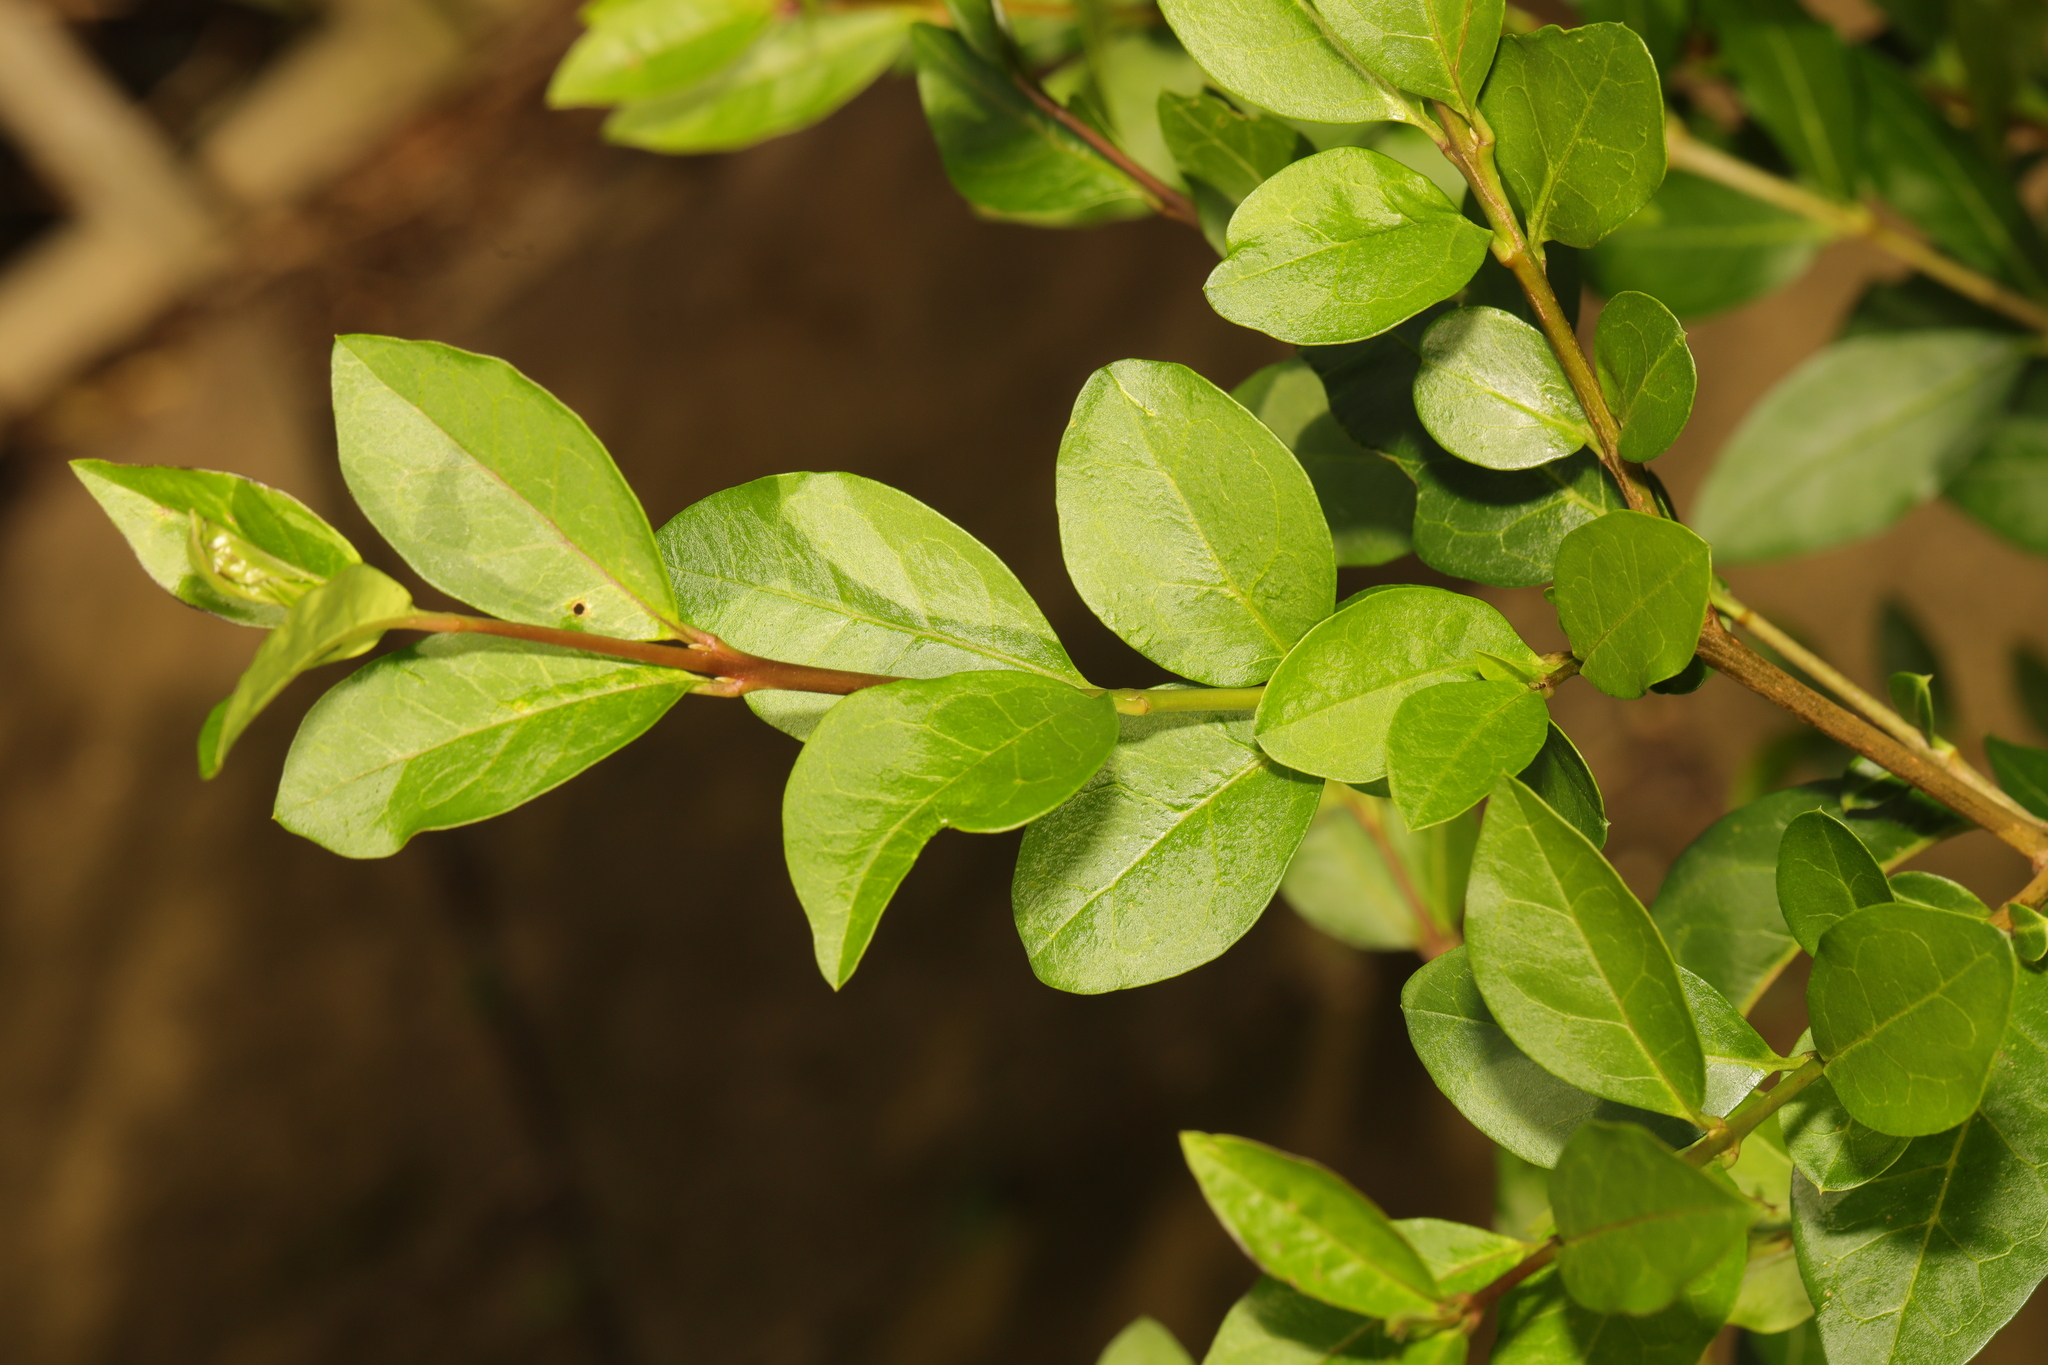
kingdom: Plantae
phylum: Tracheophyta
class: Magnoliopsida
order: Lamiales
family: Oleaceae
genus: Ligustrum
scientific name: Ligustrum ovalifolium
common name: California privet
